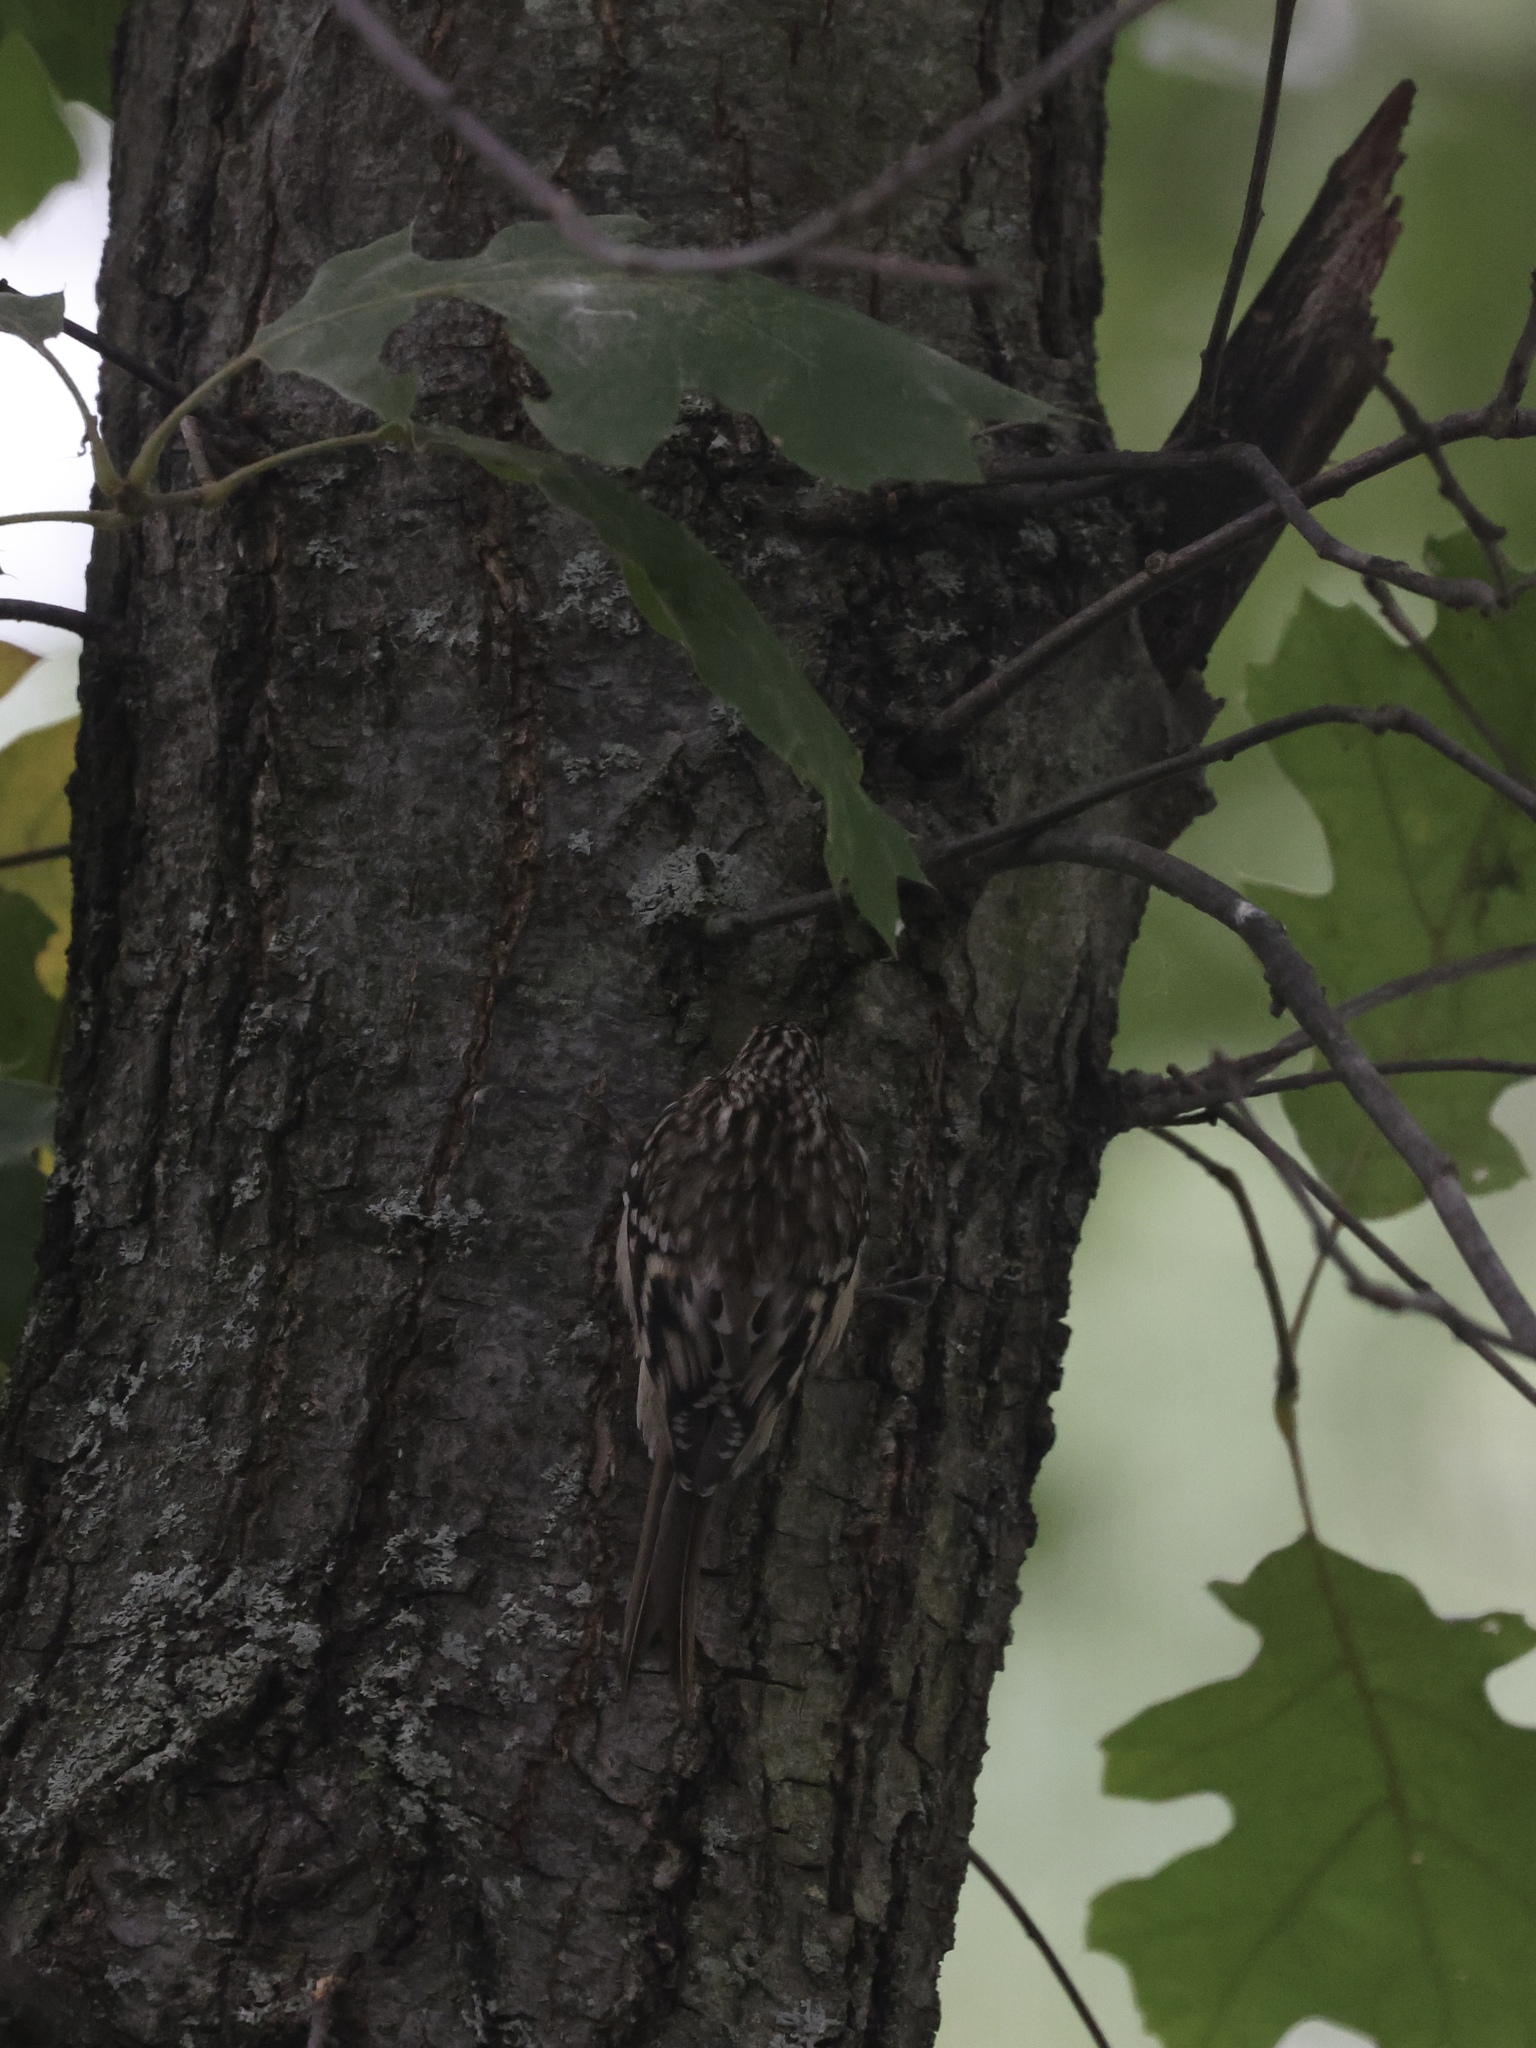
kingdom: Animalia
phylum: Chordata
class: Aves
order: Passeriformes
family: Certhiidae
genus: Certhia
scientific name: Certhia americana
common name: Brown creeper
